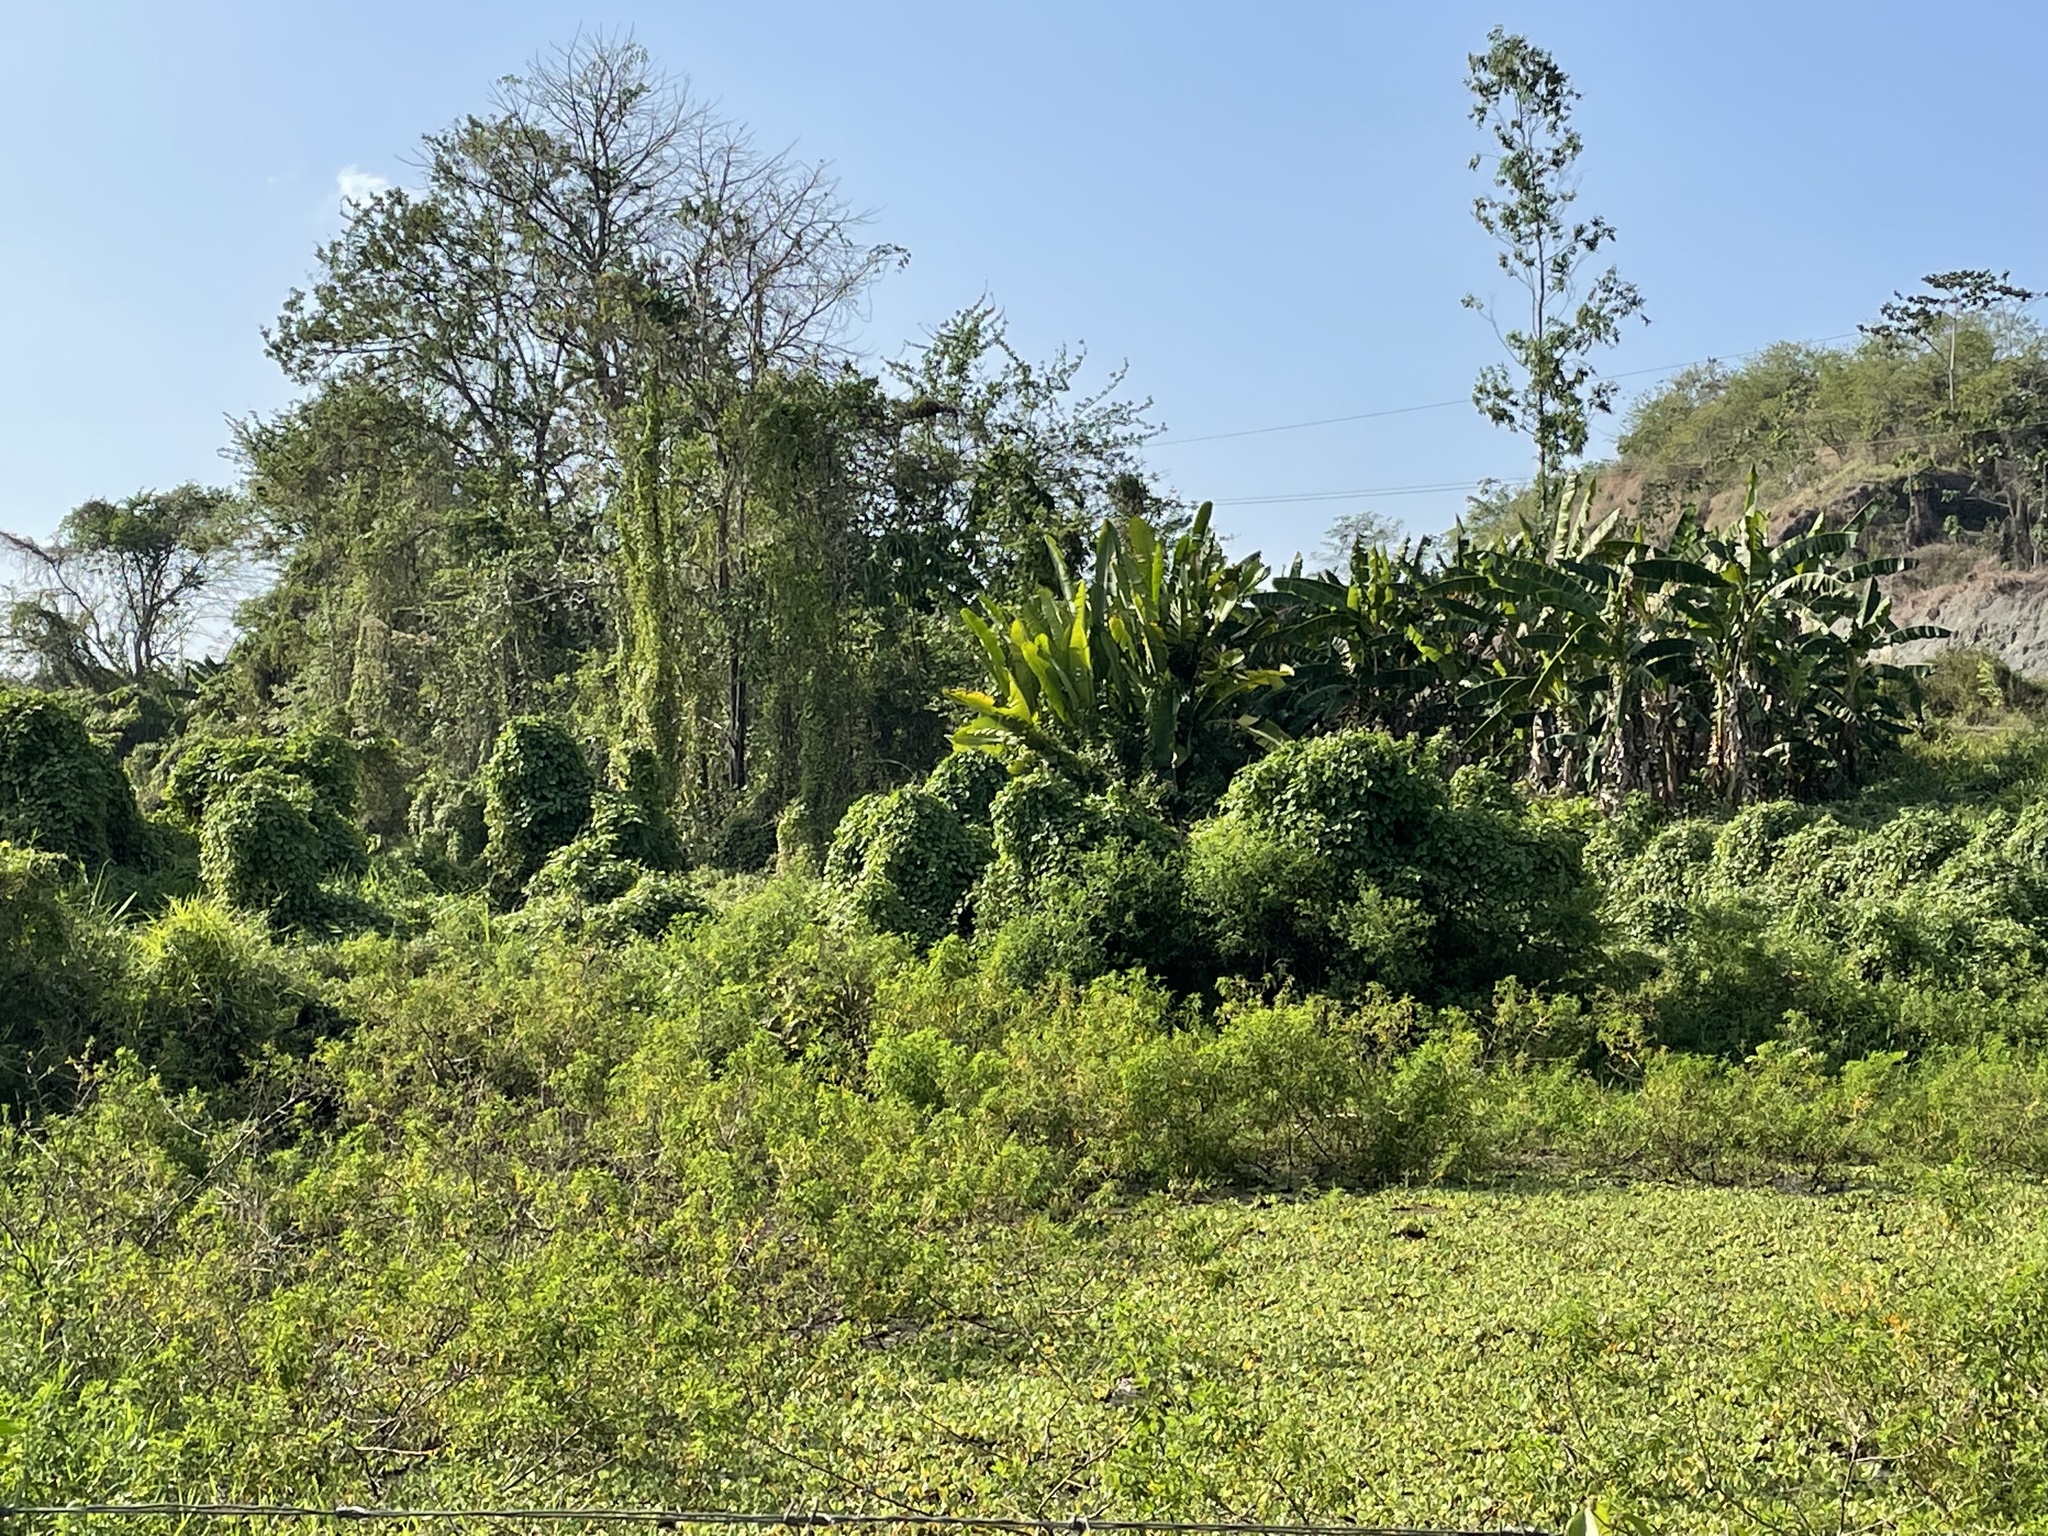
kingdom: Animalia
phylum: Chordata
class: Aves
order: Gruiformes
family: Rallidae
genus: Porphyrio
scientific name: Porphyrio martinica
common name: Purple gallinule
